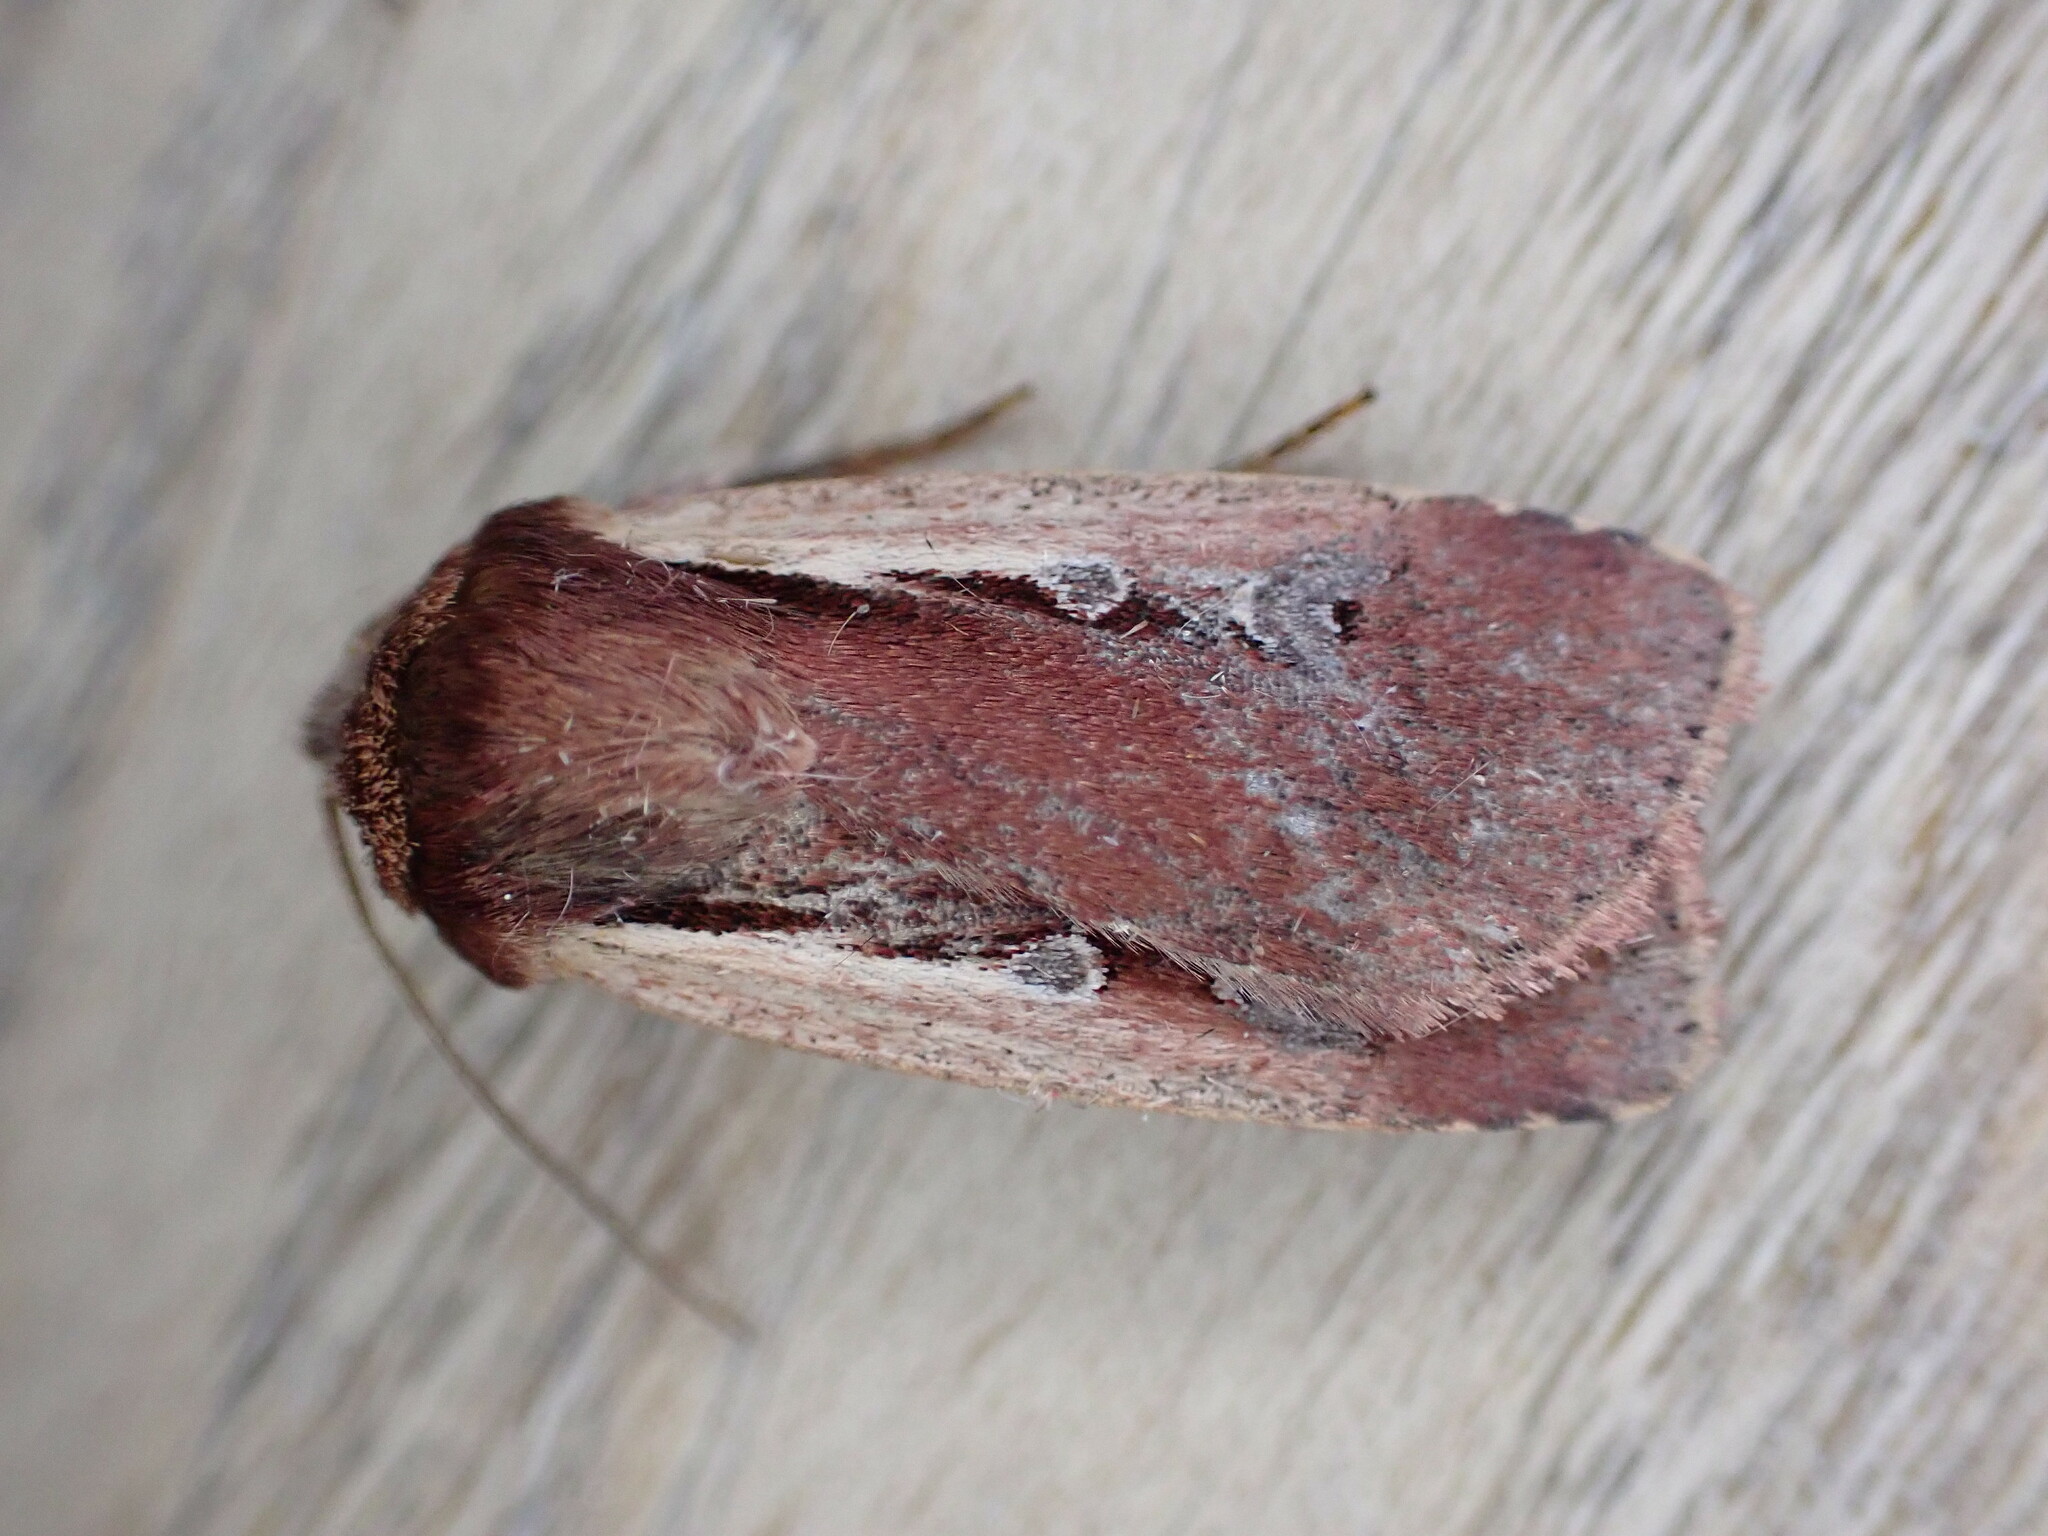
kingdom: Animalia
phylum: Arthropoda
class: Insecta
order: Lepidoptera
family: Noctuidae
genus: Ochropleura
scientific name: Ochropleura plecta
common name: Flame shoulder
